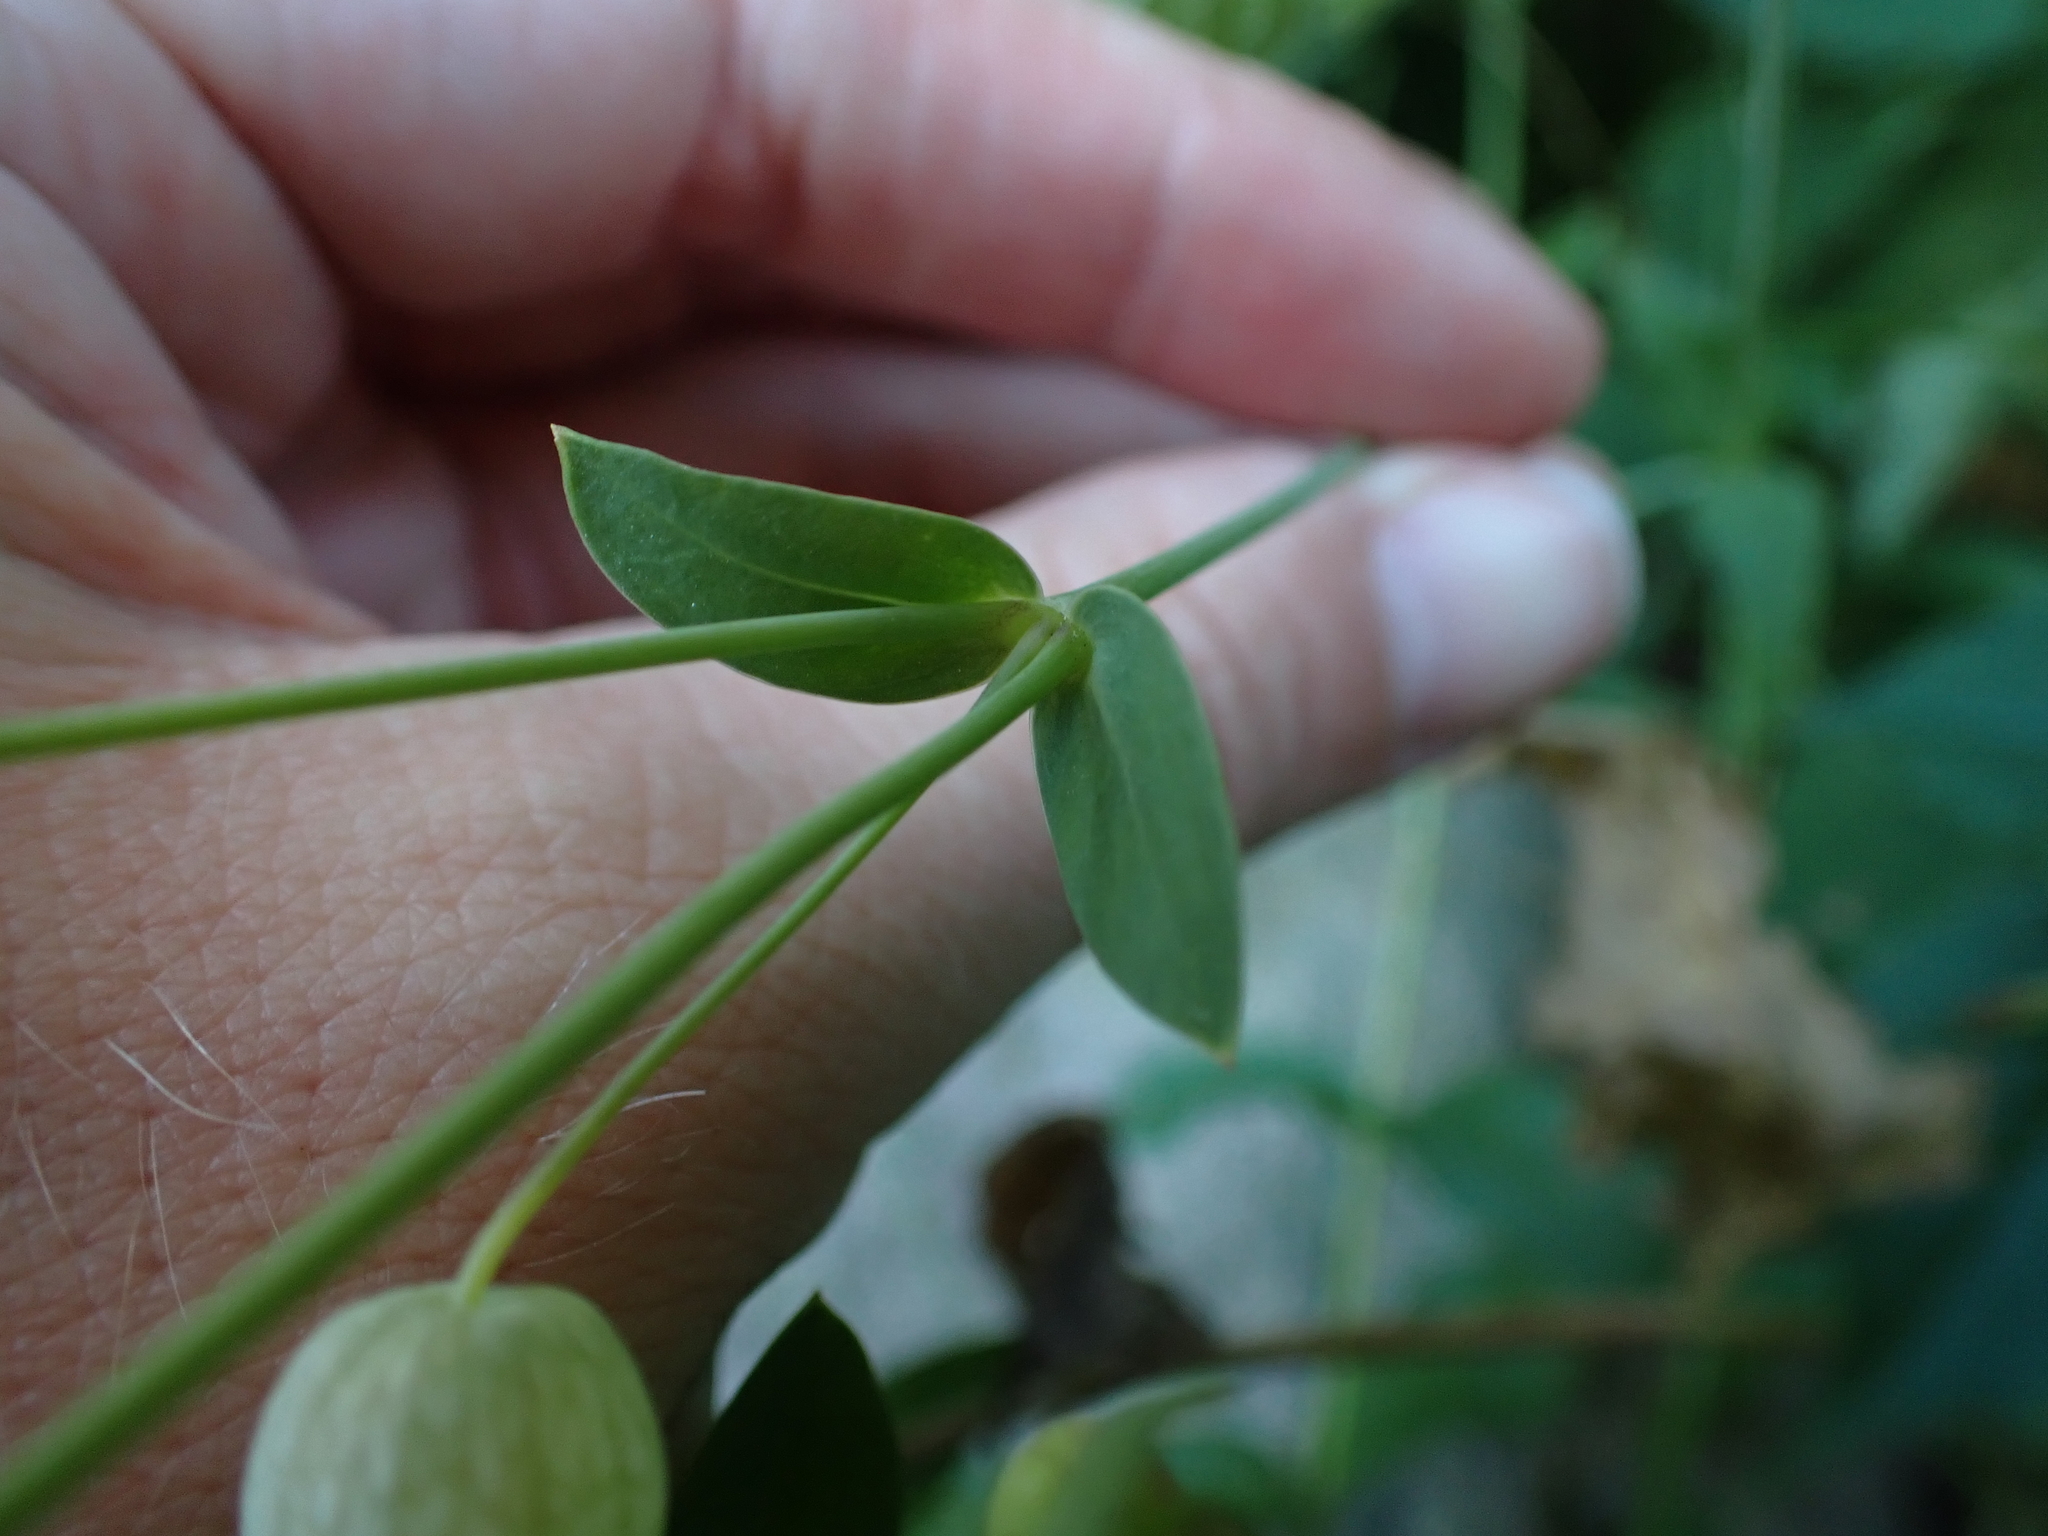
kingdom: Plantae
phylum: Tracheophyta
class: Magnoliopsida
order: Caryophyllales
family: Caryophyllaceae
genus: Silene
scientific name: Silene vulgaris
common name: Bladder campion
